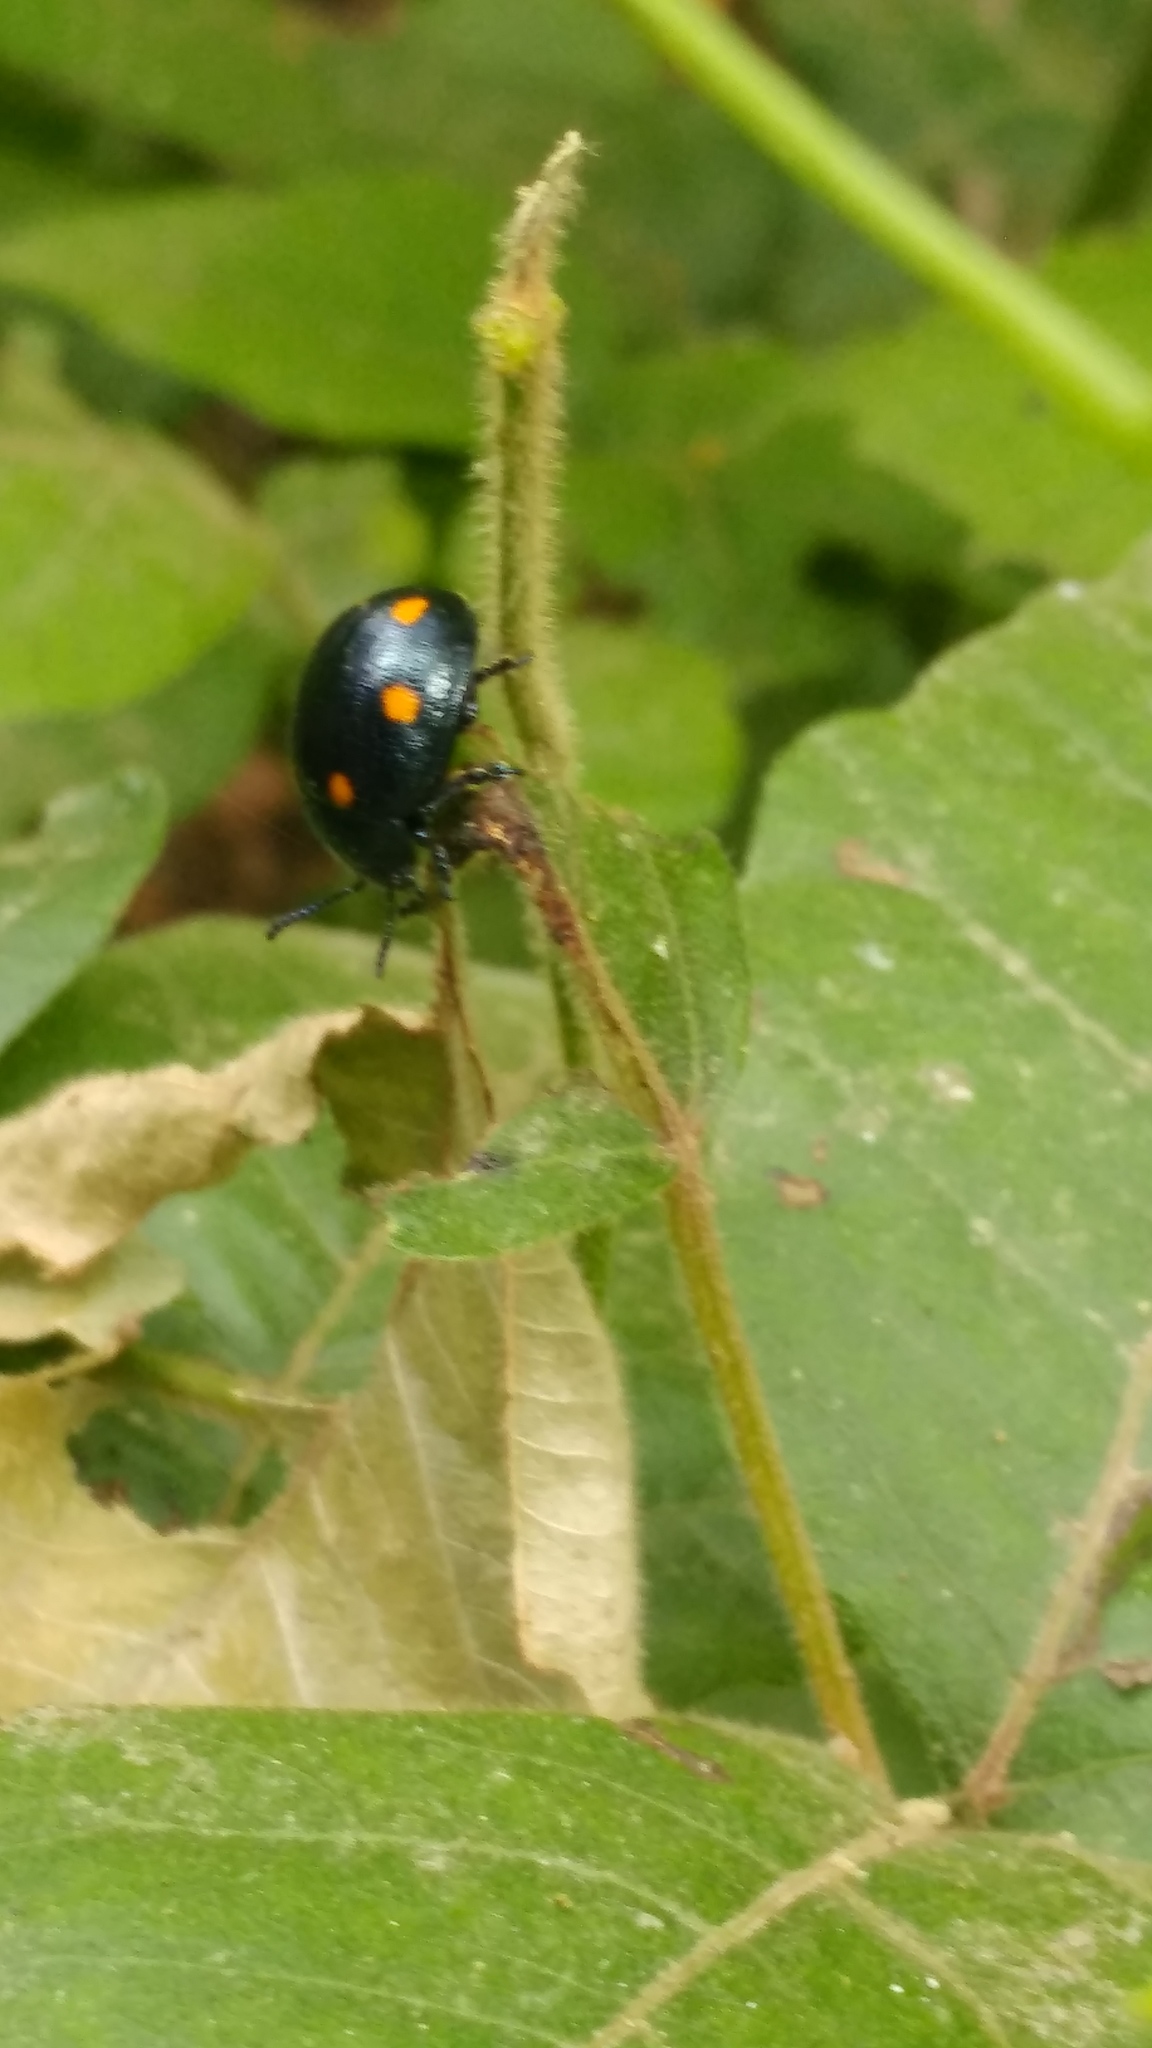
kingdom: Animalia
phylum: Arthropoda
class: Insecta
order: Coleoptera
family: Chrysomelidae
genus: Labidomera
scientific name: Labidomera
